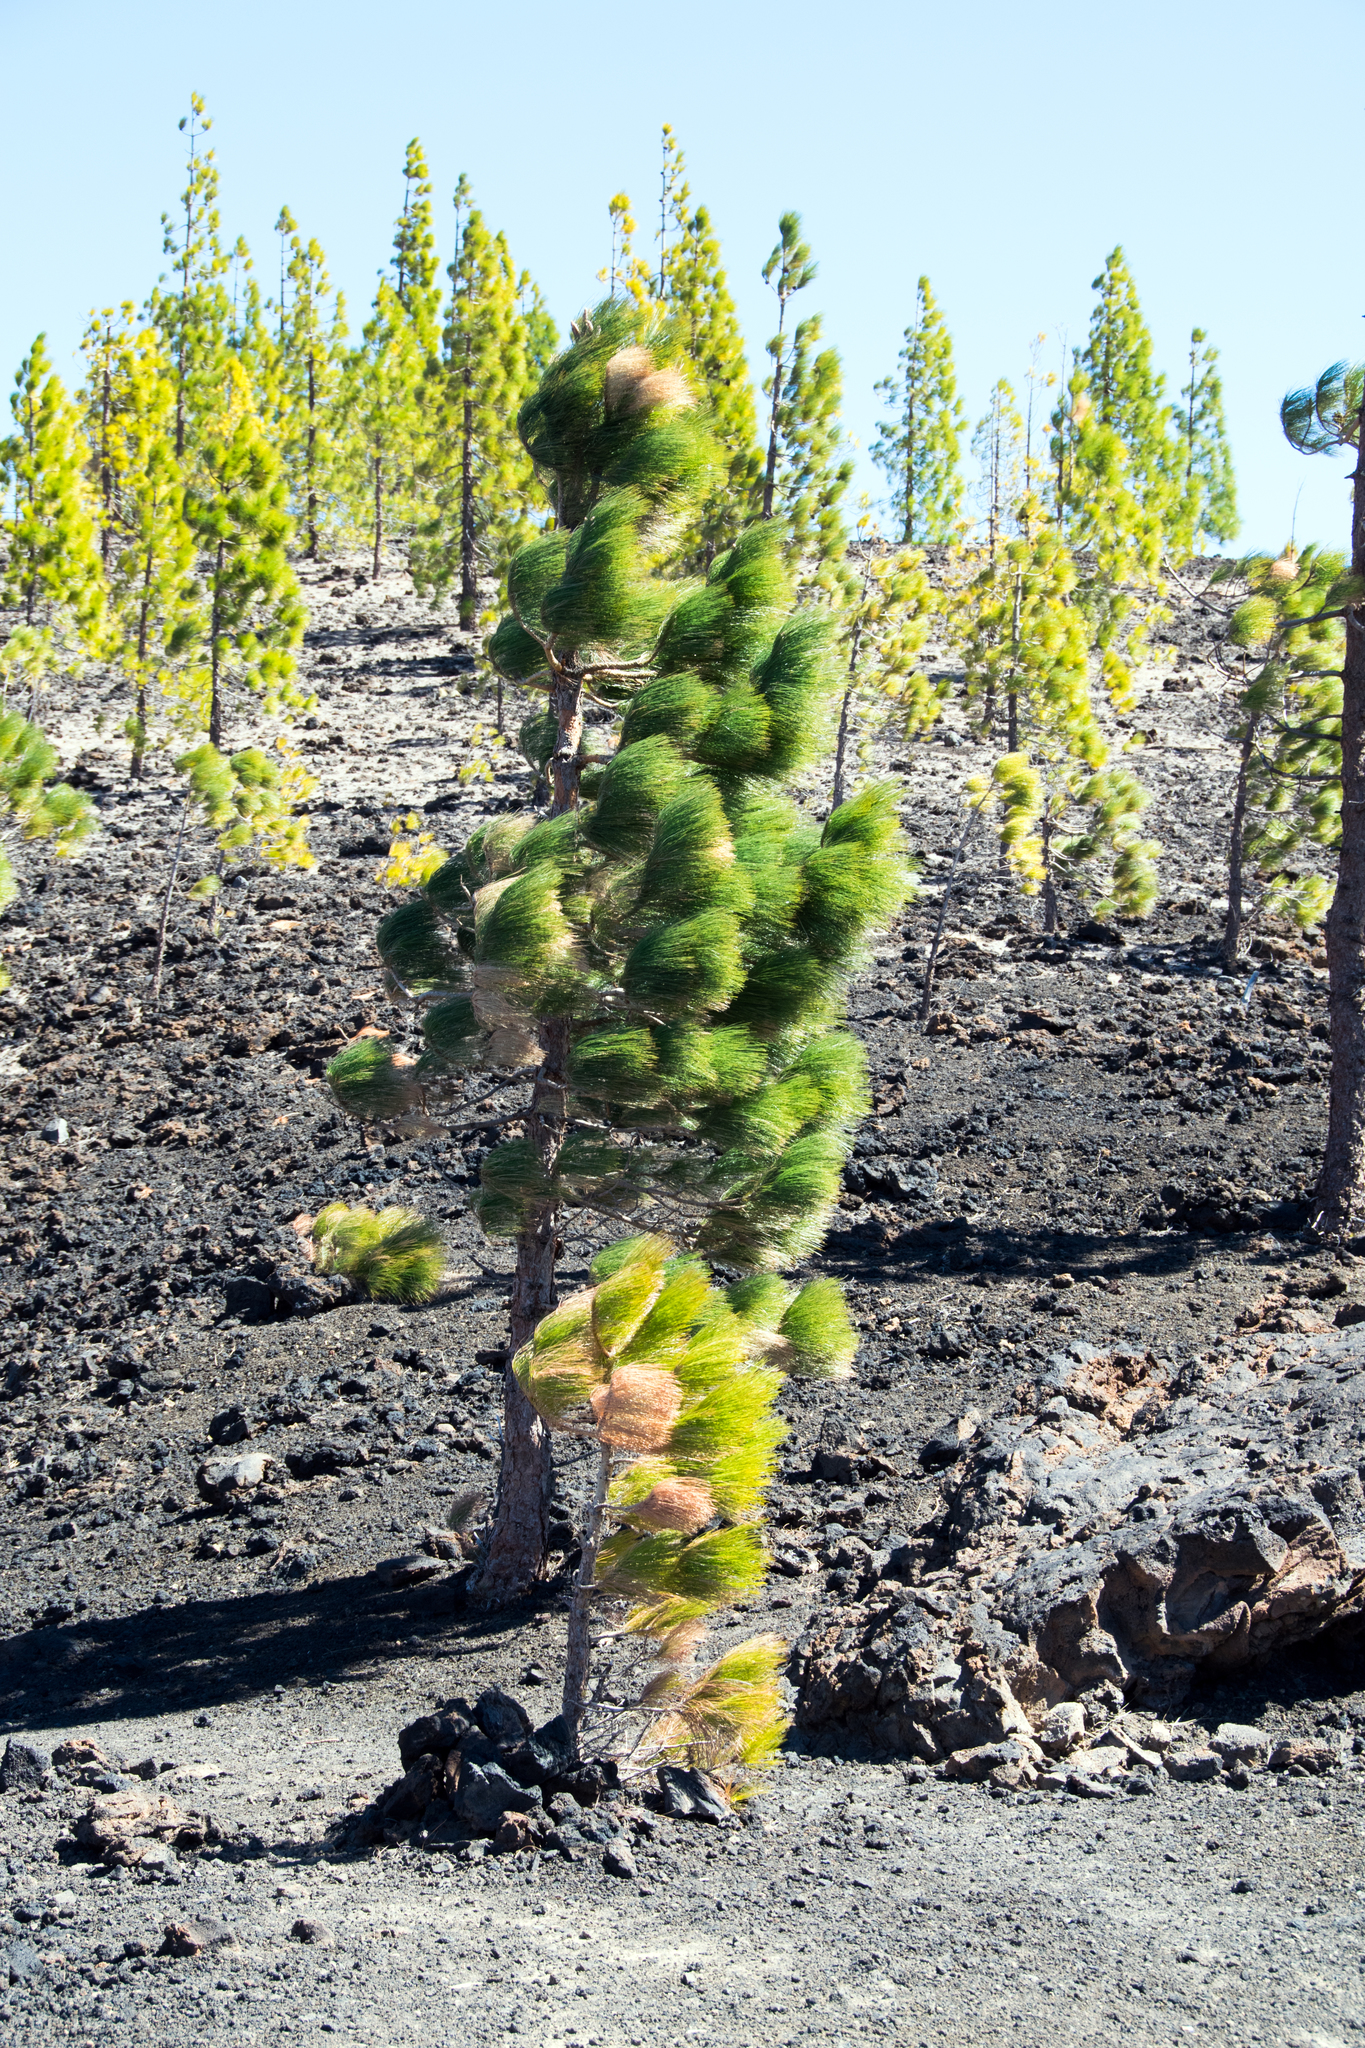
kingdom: Plantae
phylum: Tracheophyta
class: Pinopsida
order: Pinales
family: Pinaceae
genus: Pinus
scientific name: Pinus canariensis
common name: Canary islands pine
